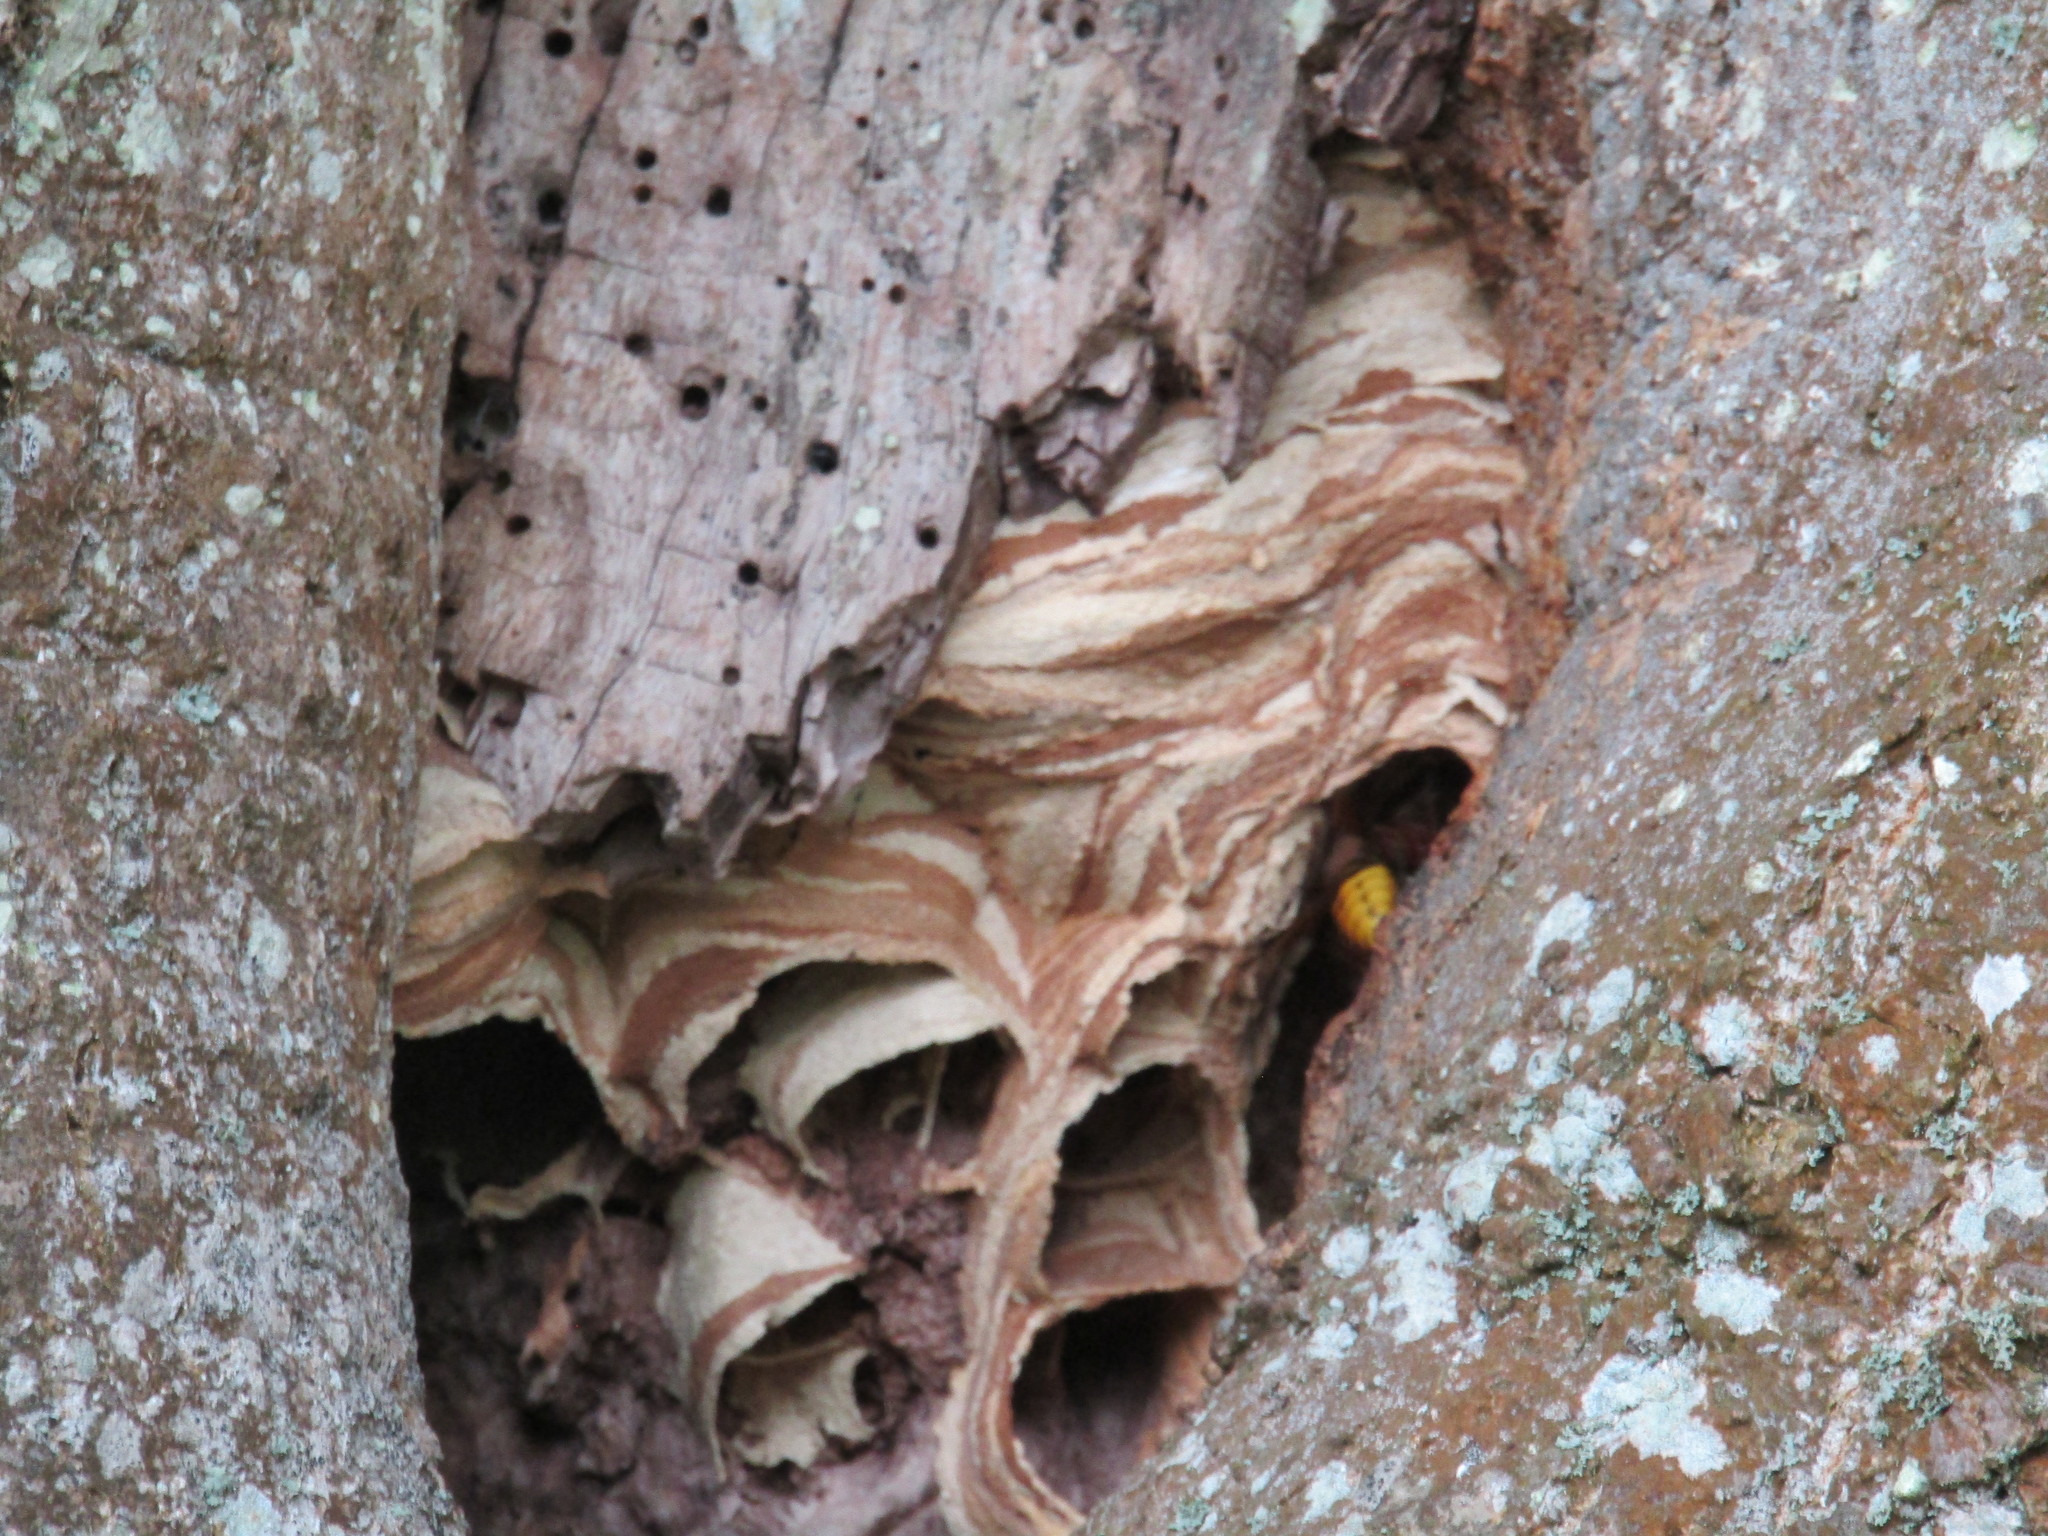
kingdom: Animalia
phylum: Arthropoda
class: Insecta
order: Hymenoptera
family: Vespidae
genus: Vespa
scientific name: Vespa crabro
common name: Hornet
